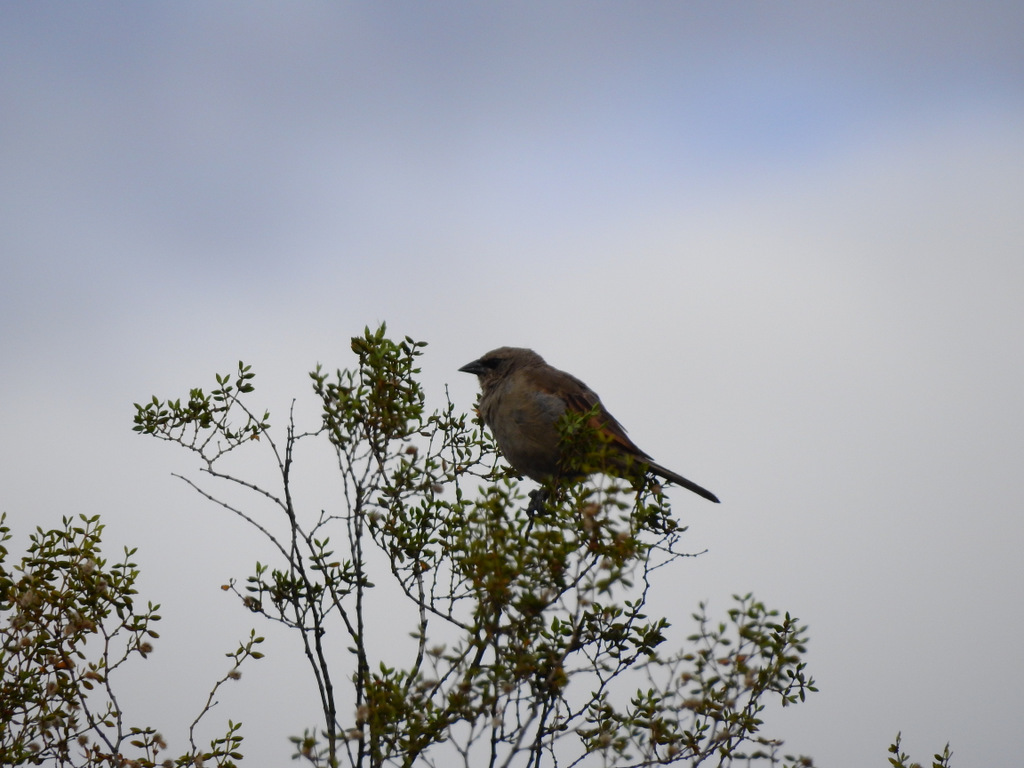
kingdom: Animalia
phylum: Chordata
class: Aves
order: Passeriformes
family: Icteridae
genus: Agelaioides
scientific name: Agelaioides badius
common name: Baywing
